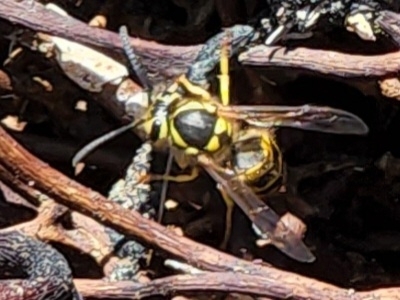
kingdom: Animalia
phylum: Arthropoda
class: Insecta
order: Hymenoptera
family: Vespidae
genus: Vespula
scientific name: Vespula pensylvanica
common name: Western yellowjacket
